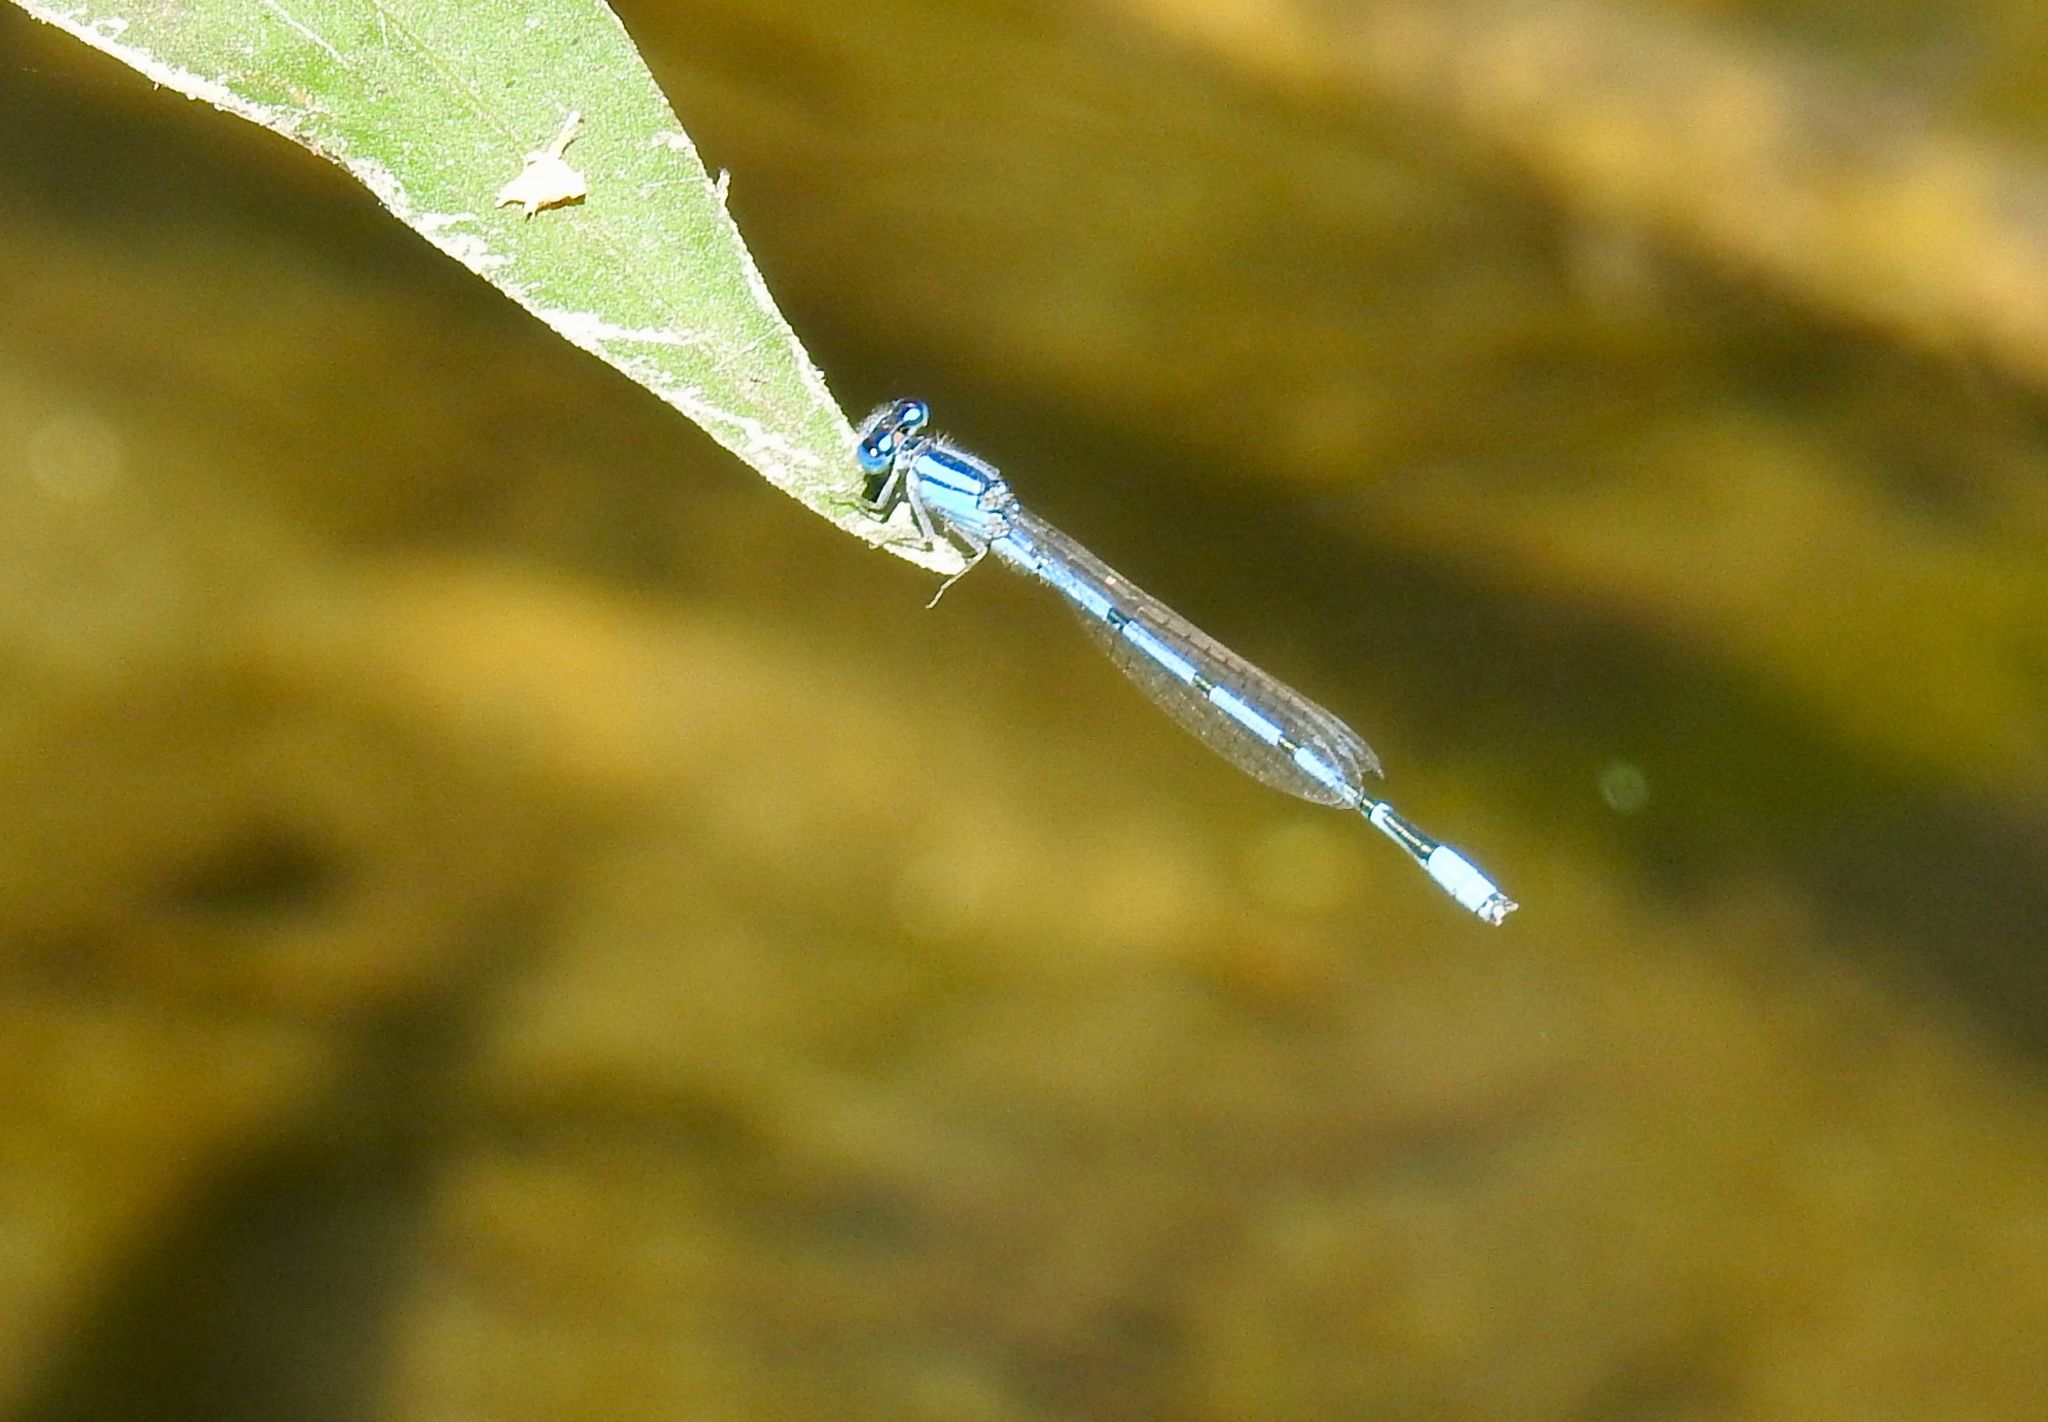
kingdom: Animalia
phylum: Arthropoda
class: Insecta
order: Odonata
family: Coenagrionidae
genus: Enallagma
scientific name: Enallagma civile
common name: Damselfly
